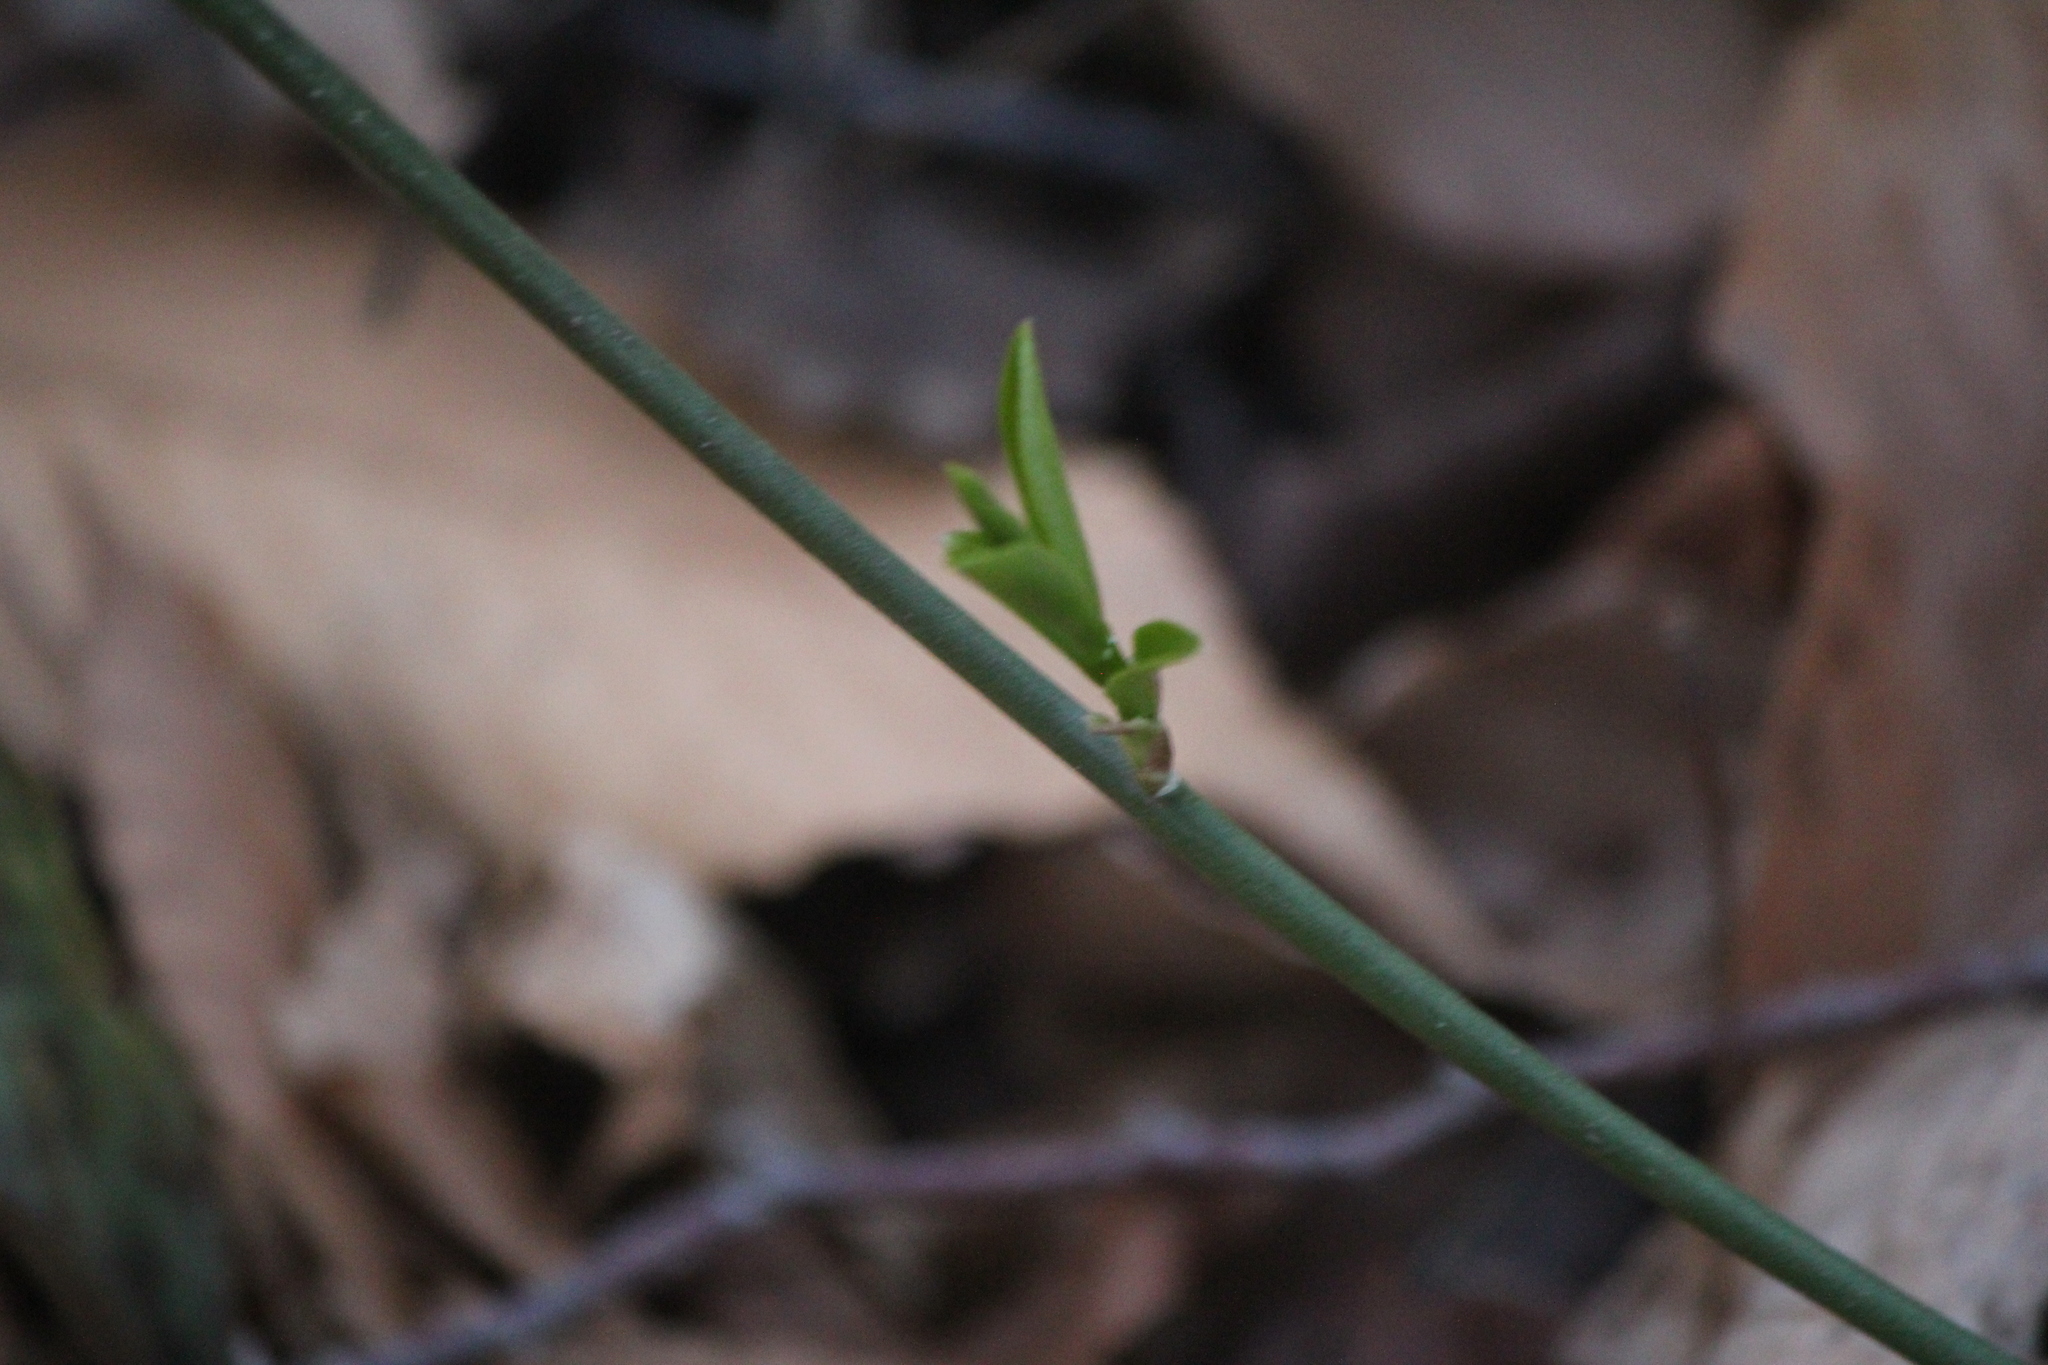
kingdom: Plantae
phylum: Tracheophyta
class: Magnoliopsida
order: Celastrales
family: Celastraceae
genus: Euonymus
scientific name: Euonymus obovatus
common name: Running strawberry-bush
